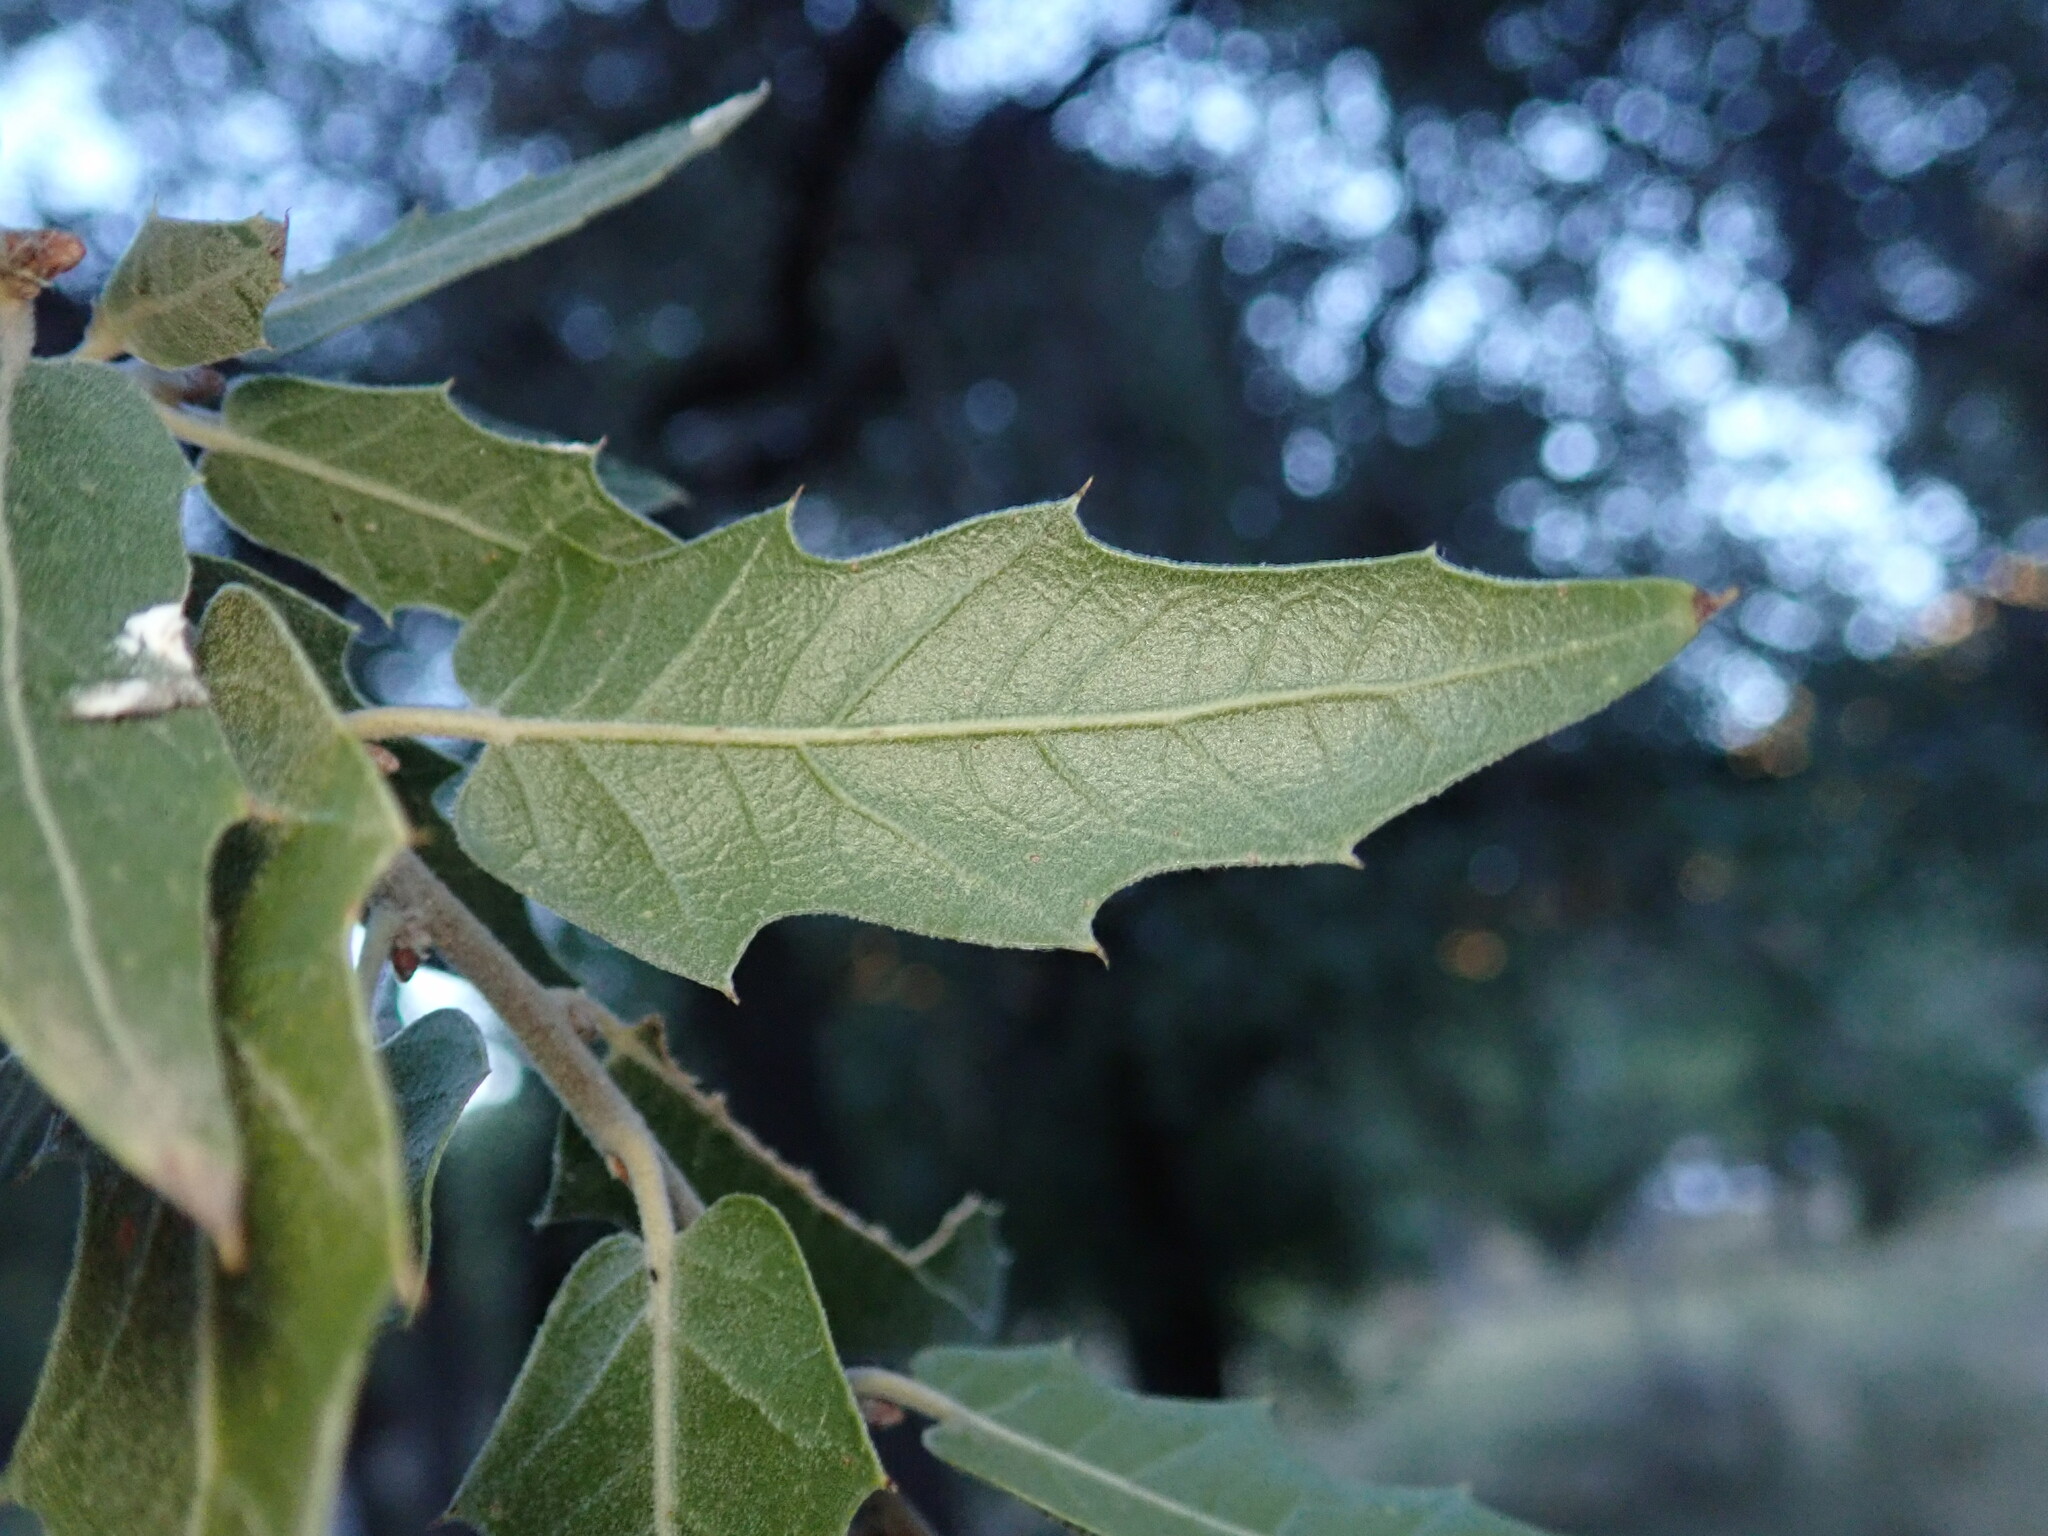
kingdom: Plantae
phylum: Tracheophyta
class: Magnoliopsida
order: Fagales
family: Fagaceae
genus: Quercus
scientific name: Quercus emoryi
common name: Emory oak
